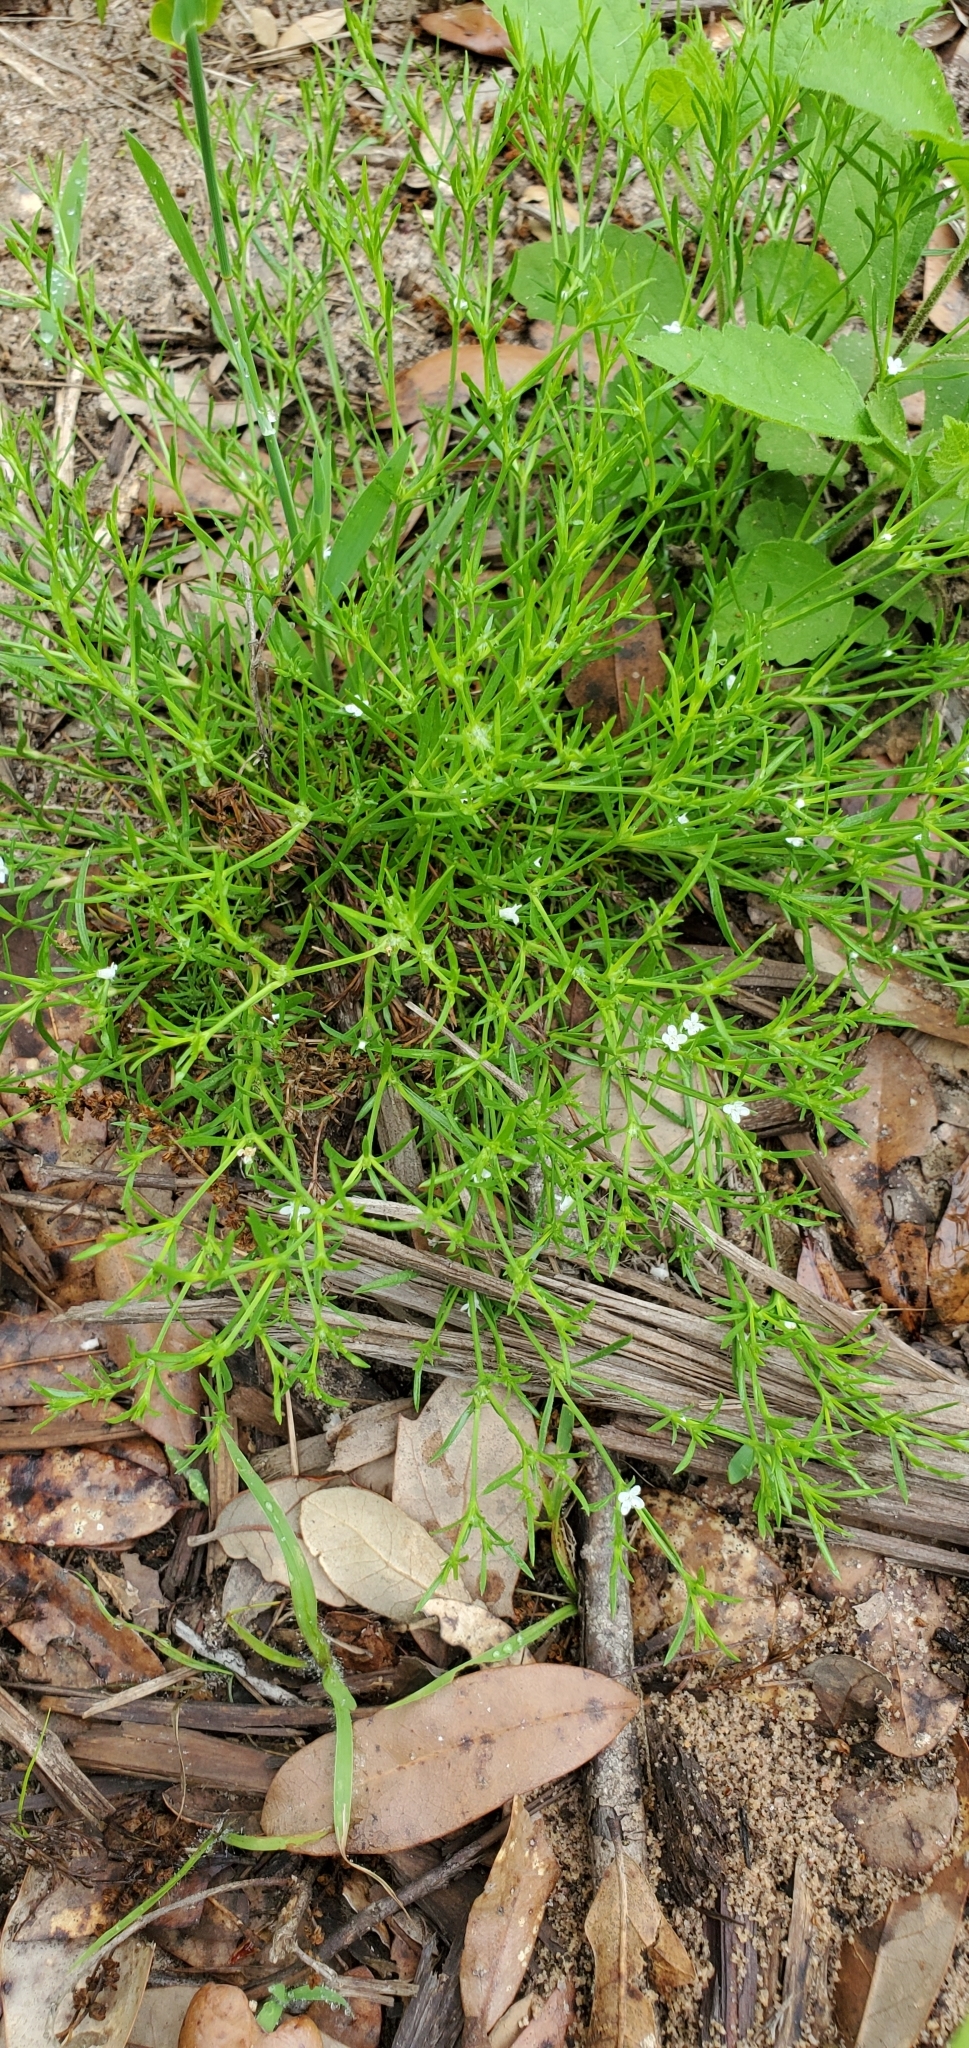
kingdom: Plantae
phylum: Tracheophyta
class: Magnoliopsida
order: Lamiales
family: Tetrachondraceae
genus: Polypremum
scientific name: Polypremum procumbens
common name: Juniper-leaf
